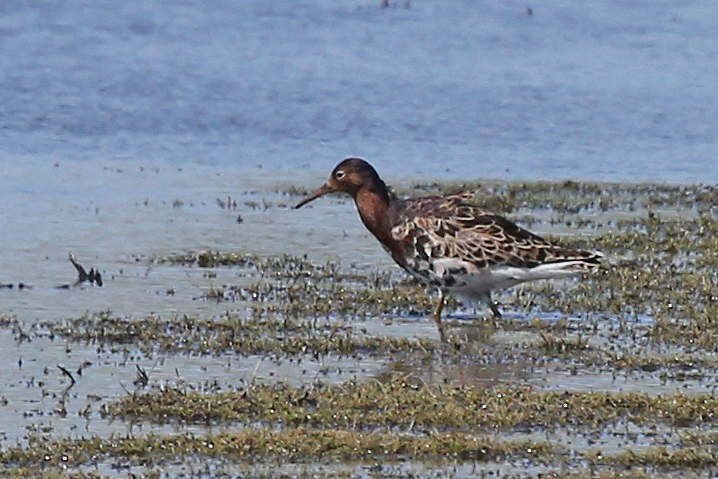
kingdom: Animalia
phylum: Chordata
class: Aves
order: Charadriiformes
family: Scolopacidae
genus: Calidris
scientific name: Calidris pugnax
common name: Ruff
